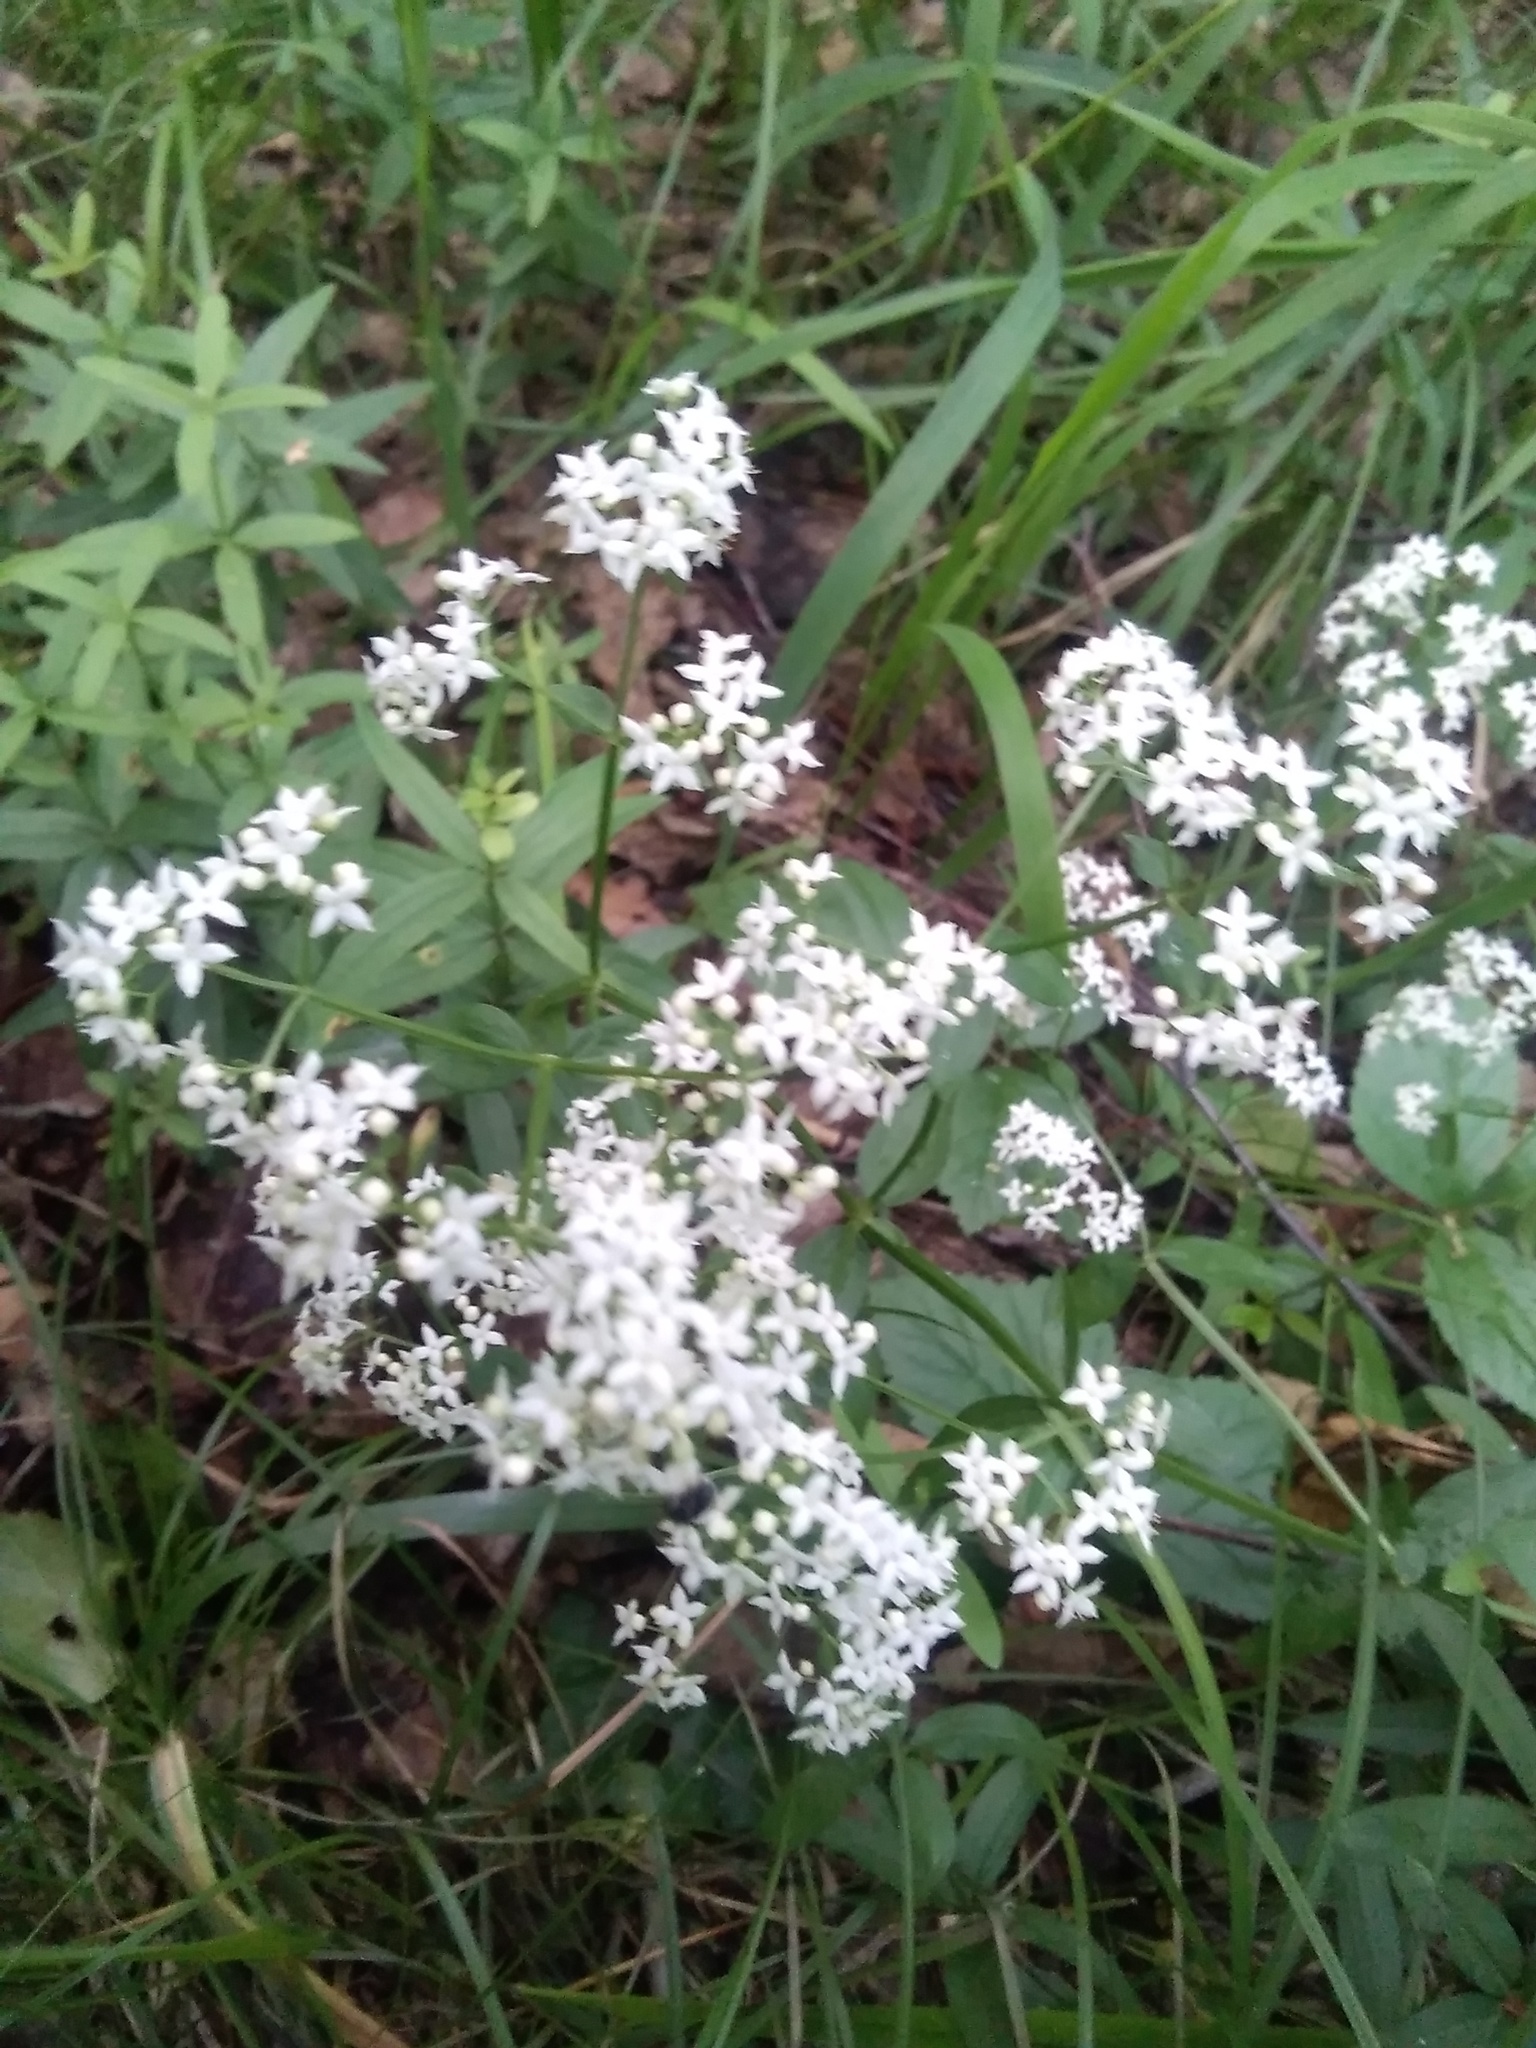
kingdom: Plantae
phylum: Tracheophyta
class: Magnoliopsida
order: Gentianales
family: Rubiaceae
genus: Galium
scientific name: Galium boreale
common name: Northern bedstraw
